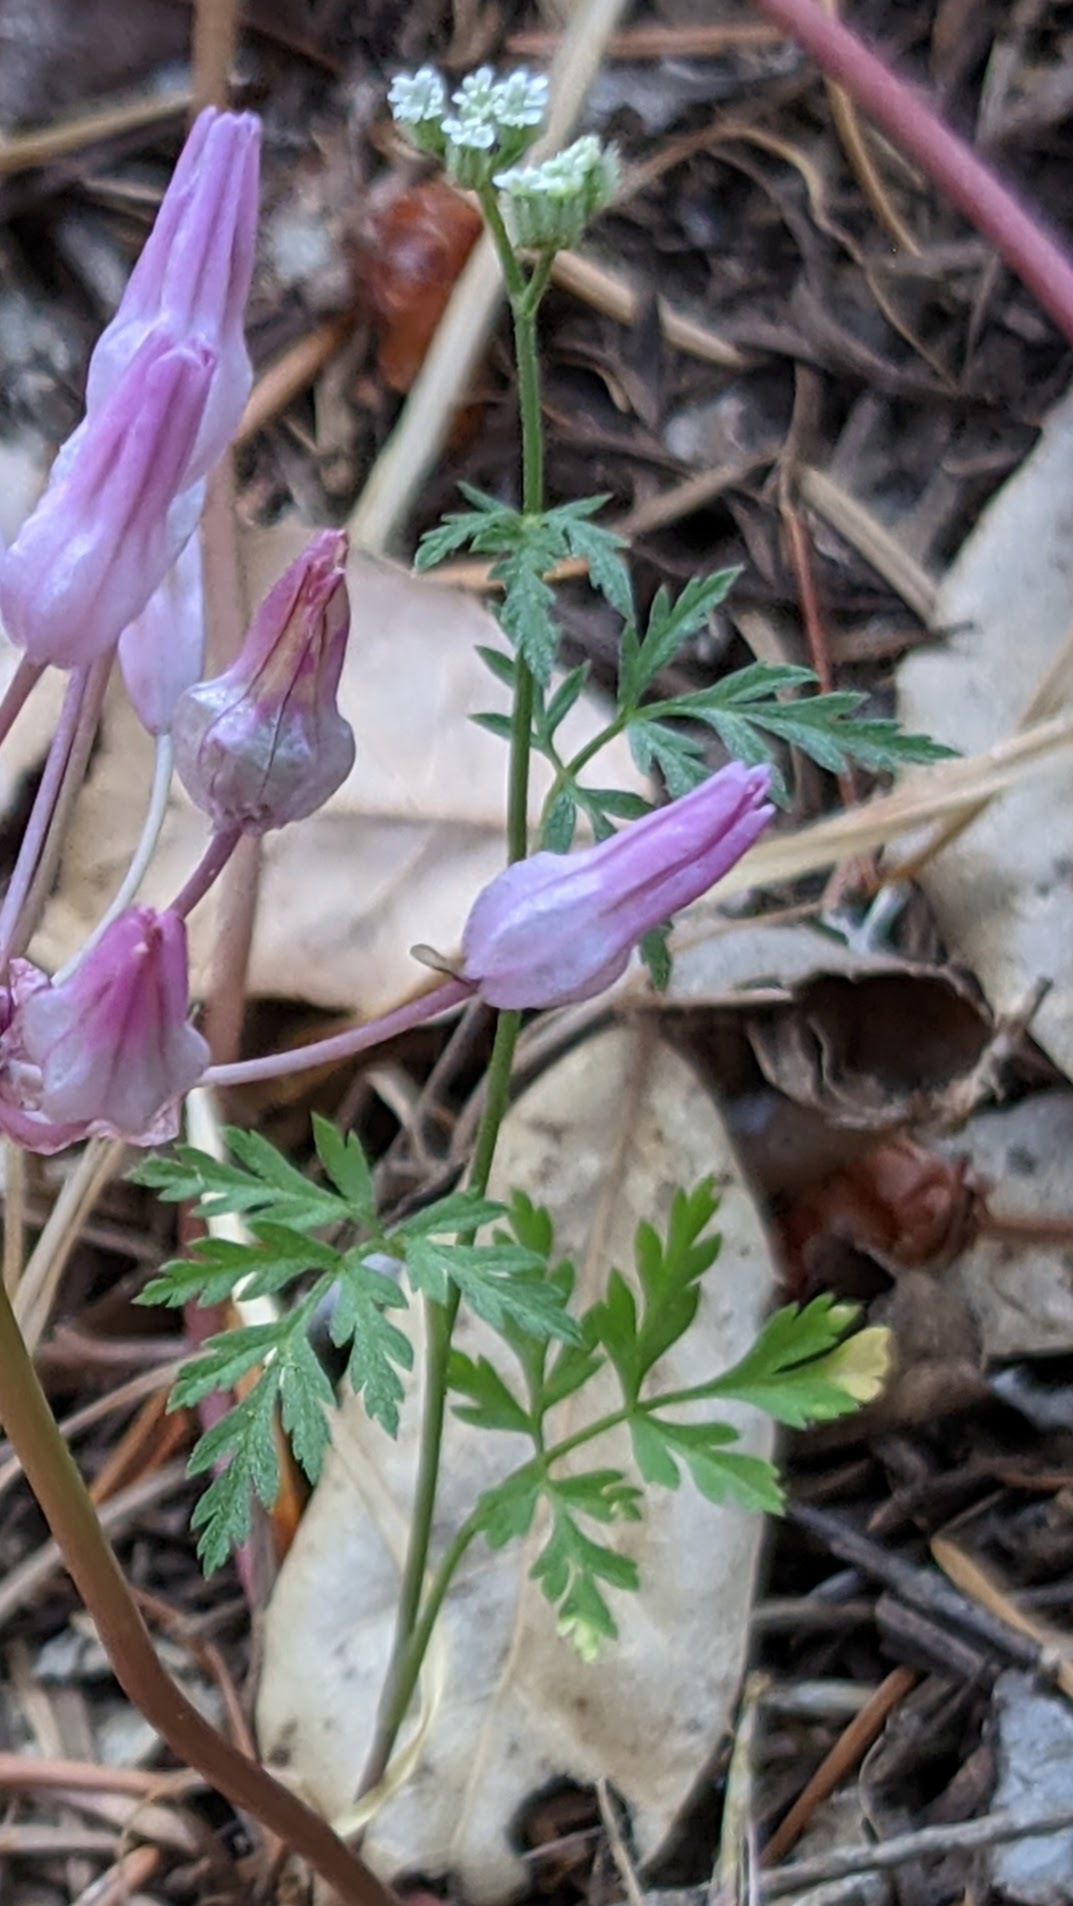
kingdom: Plantae
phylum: Tracheophyta
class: Magnoliopsida
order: Apiales
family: Apiaceae
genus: Torilis
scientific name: Torilis arvensis
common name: Spreading hedge-parsley
